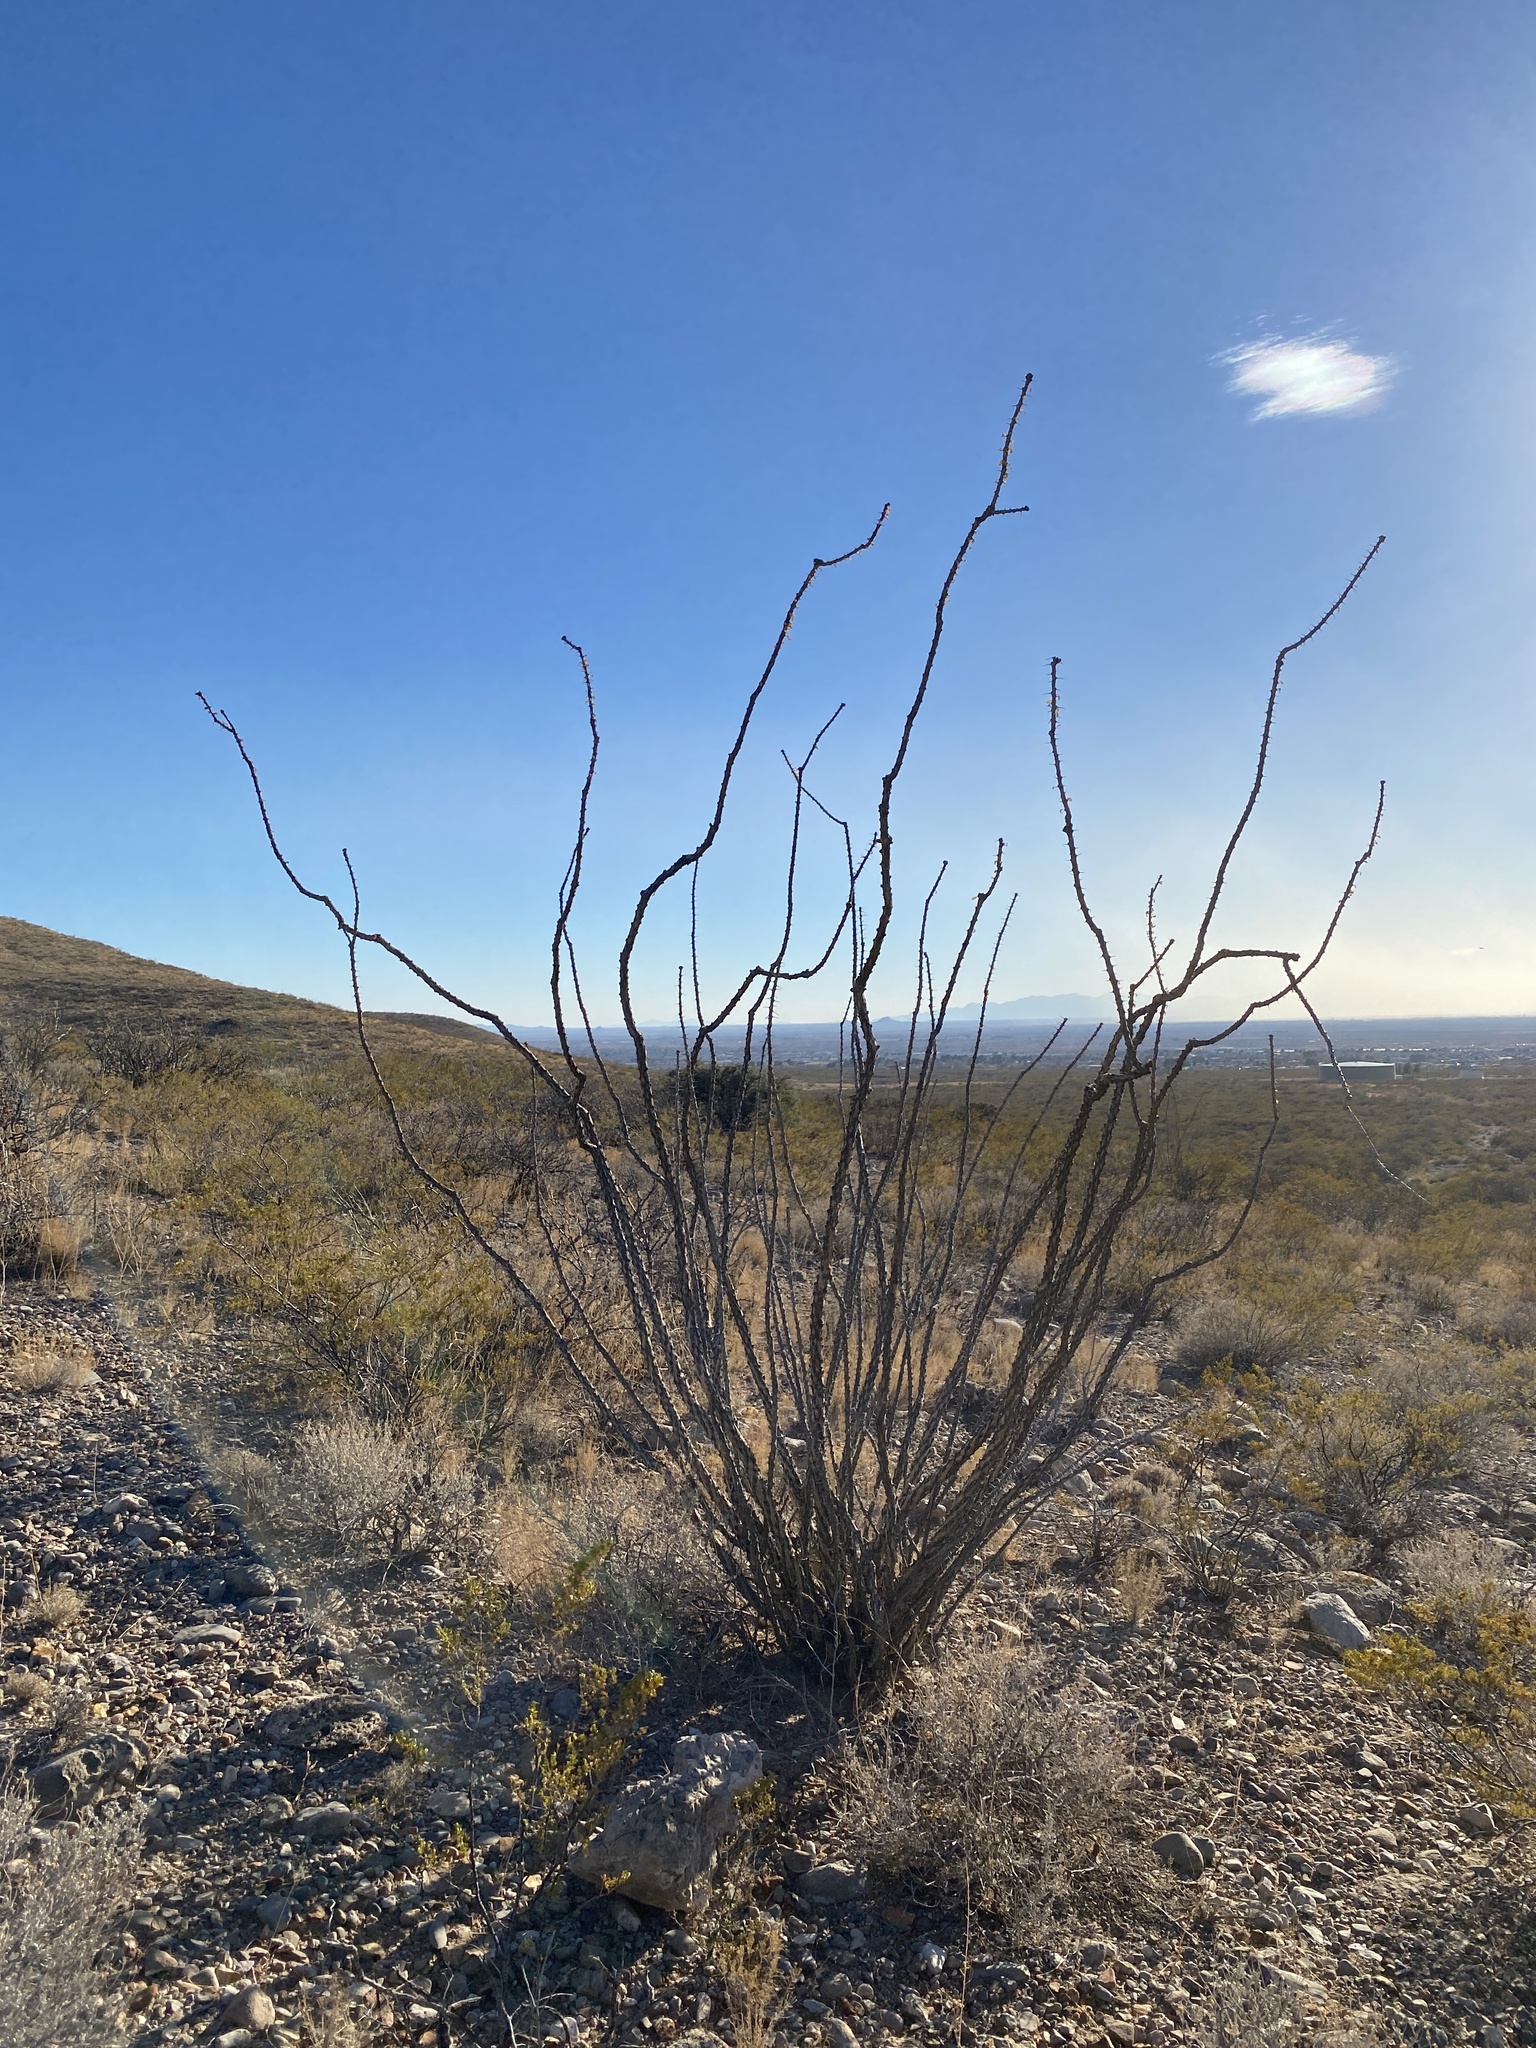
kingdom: Plantae
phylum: Tracheophyta
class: Magnoliopsida
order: Ericales
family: Fouquieriaceae
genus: Fouquieria
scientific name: Fouquieria splendens
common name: Vine-cactus
